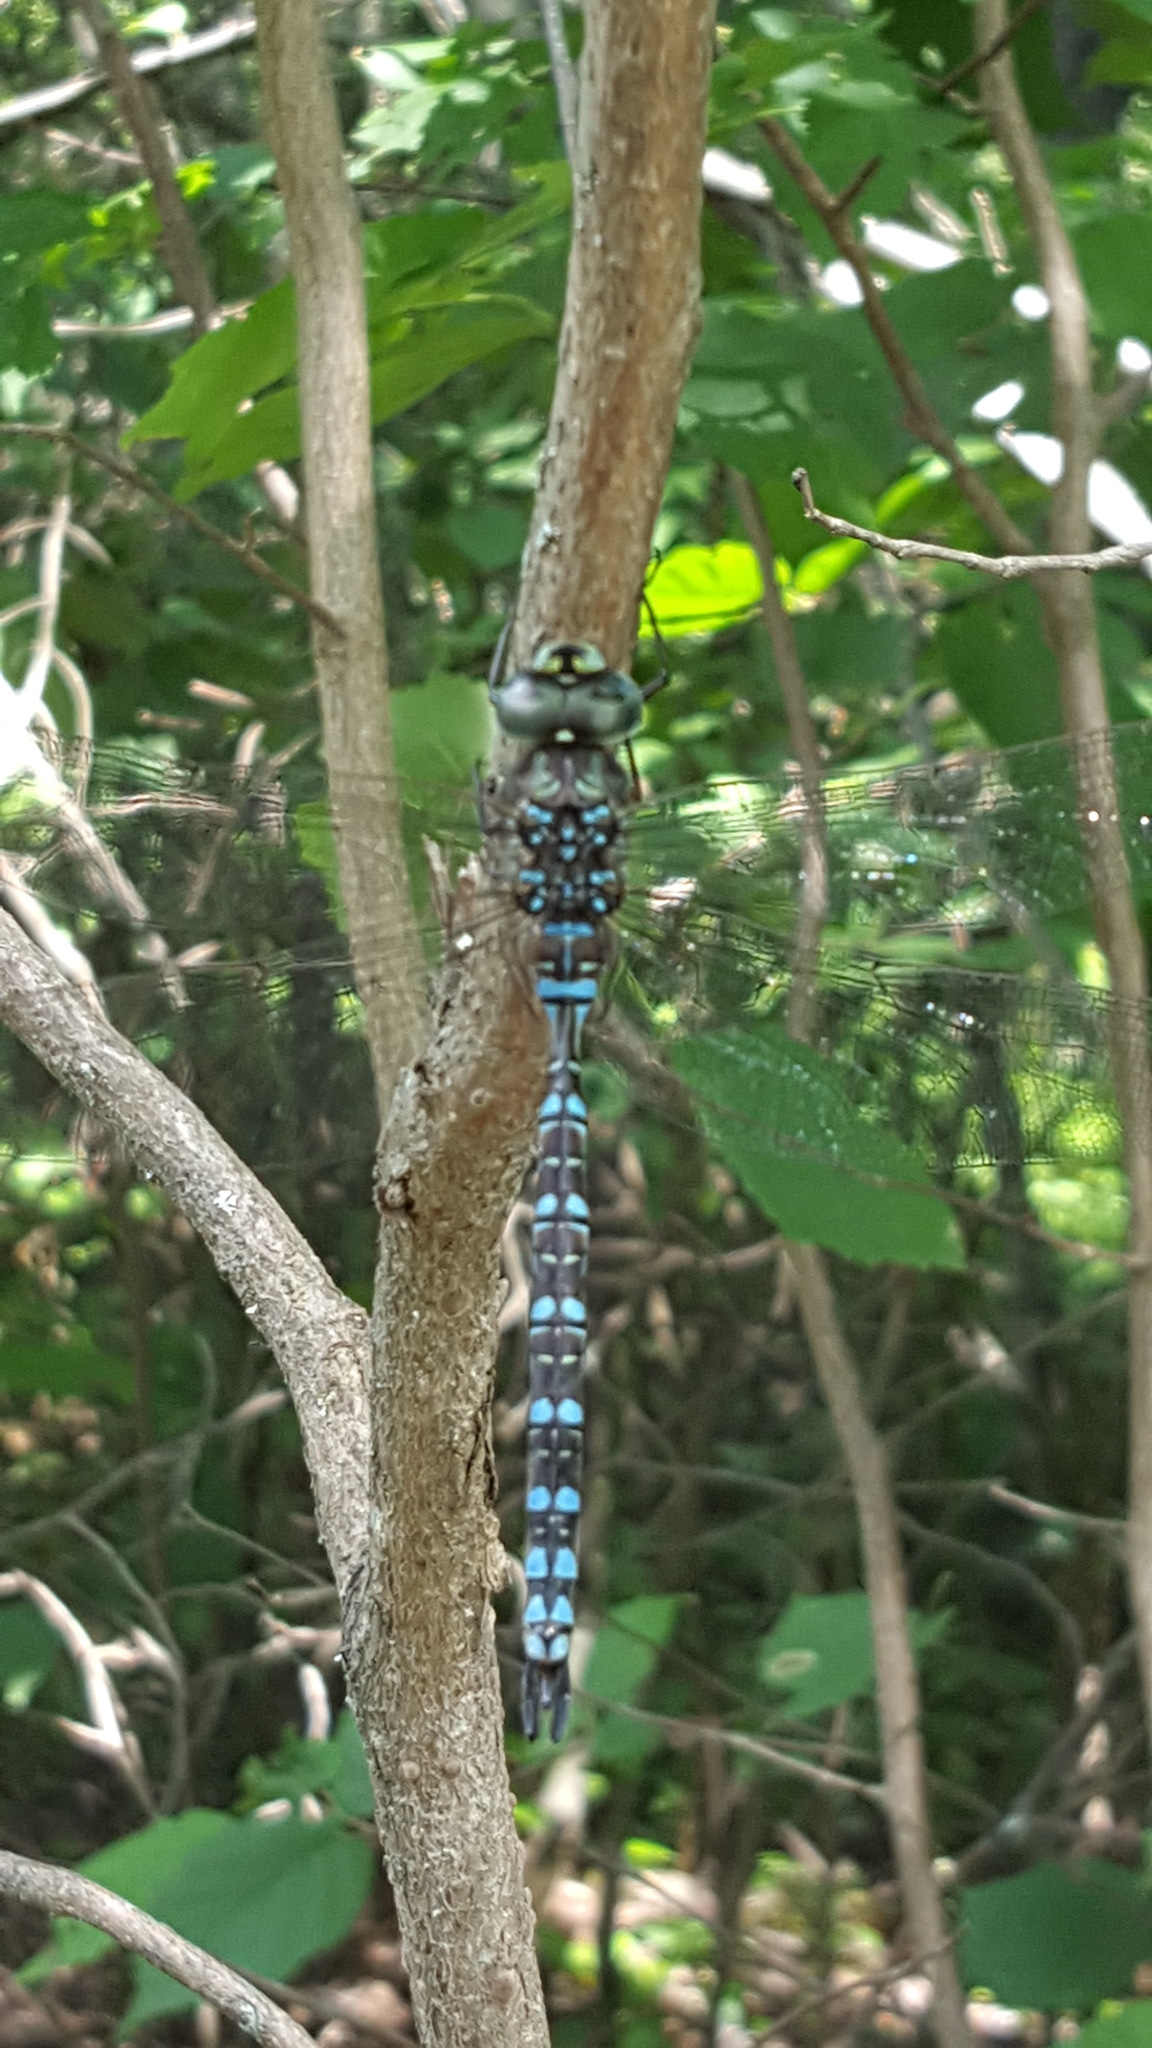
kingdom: Animalia
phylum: Arthropoda
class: Insecta
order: Odonata
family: Aeshnidae
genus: Aeshna
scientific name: Aeshna canadensis
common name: Canada darner
